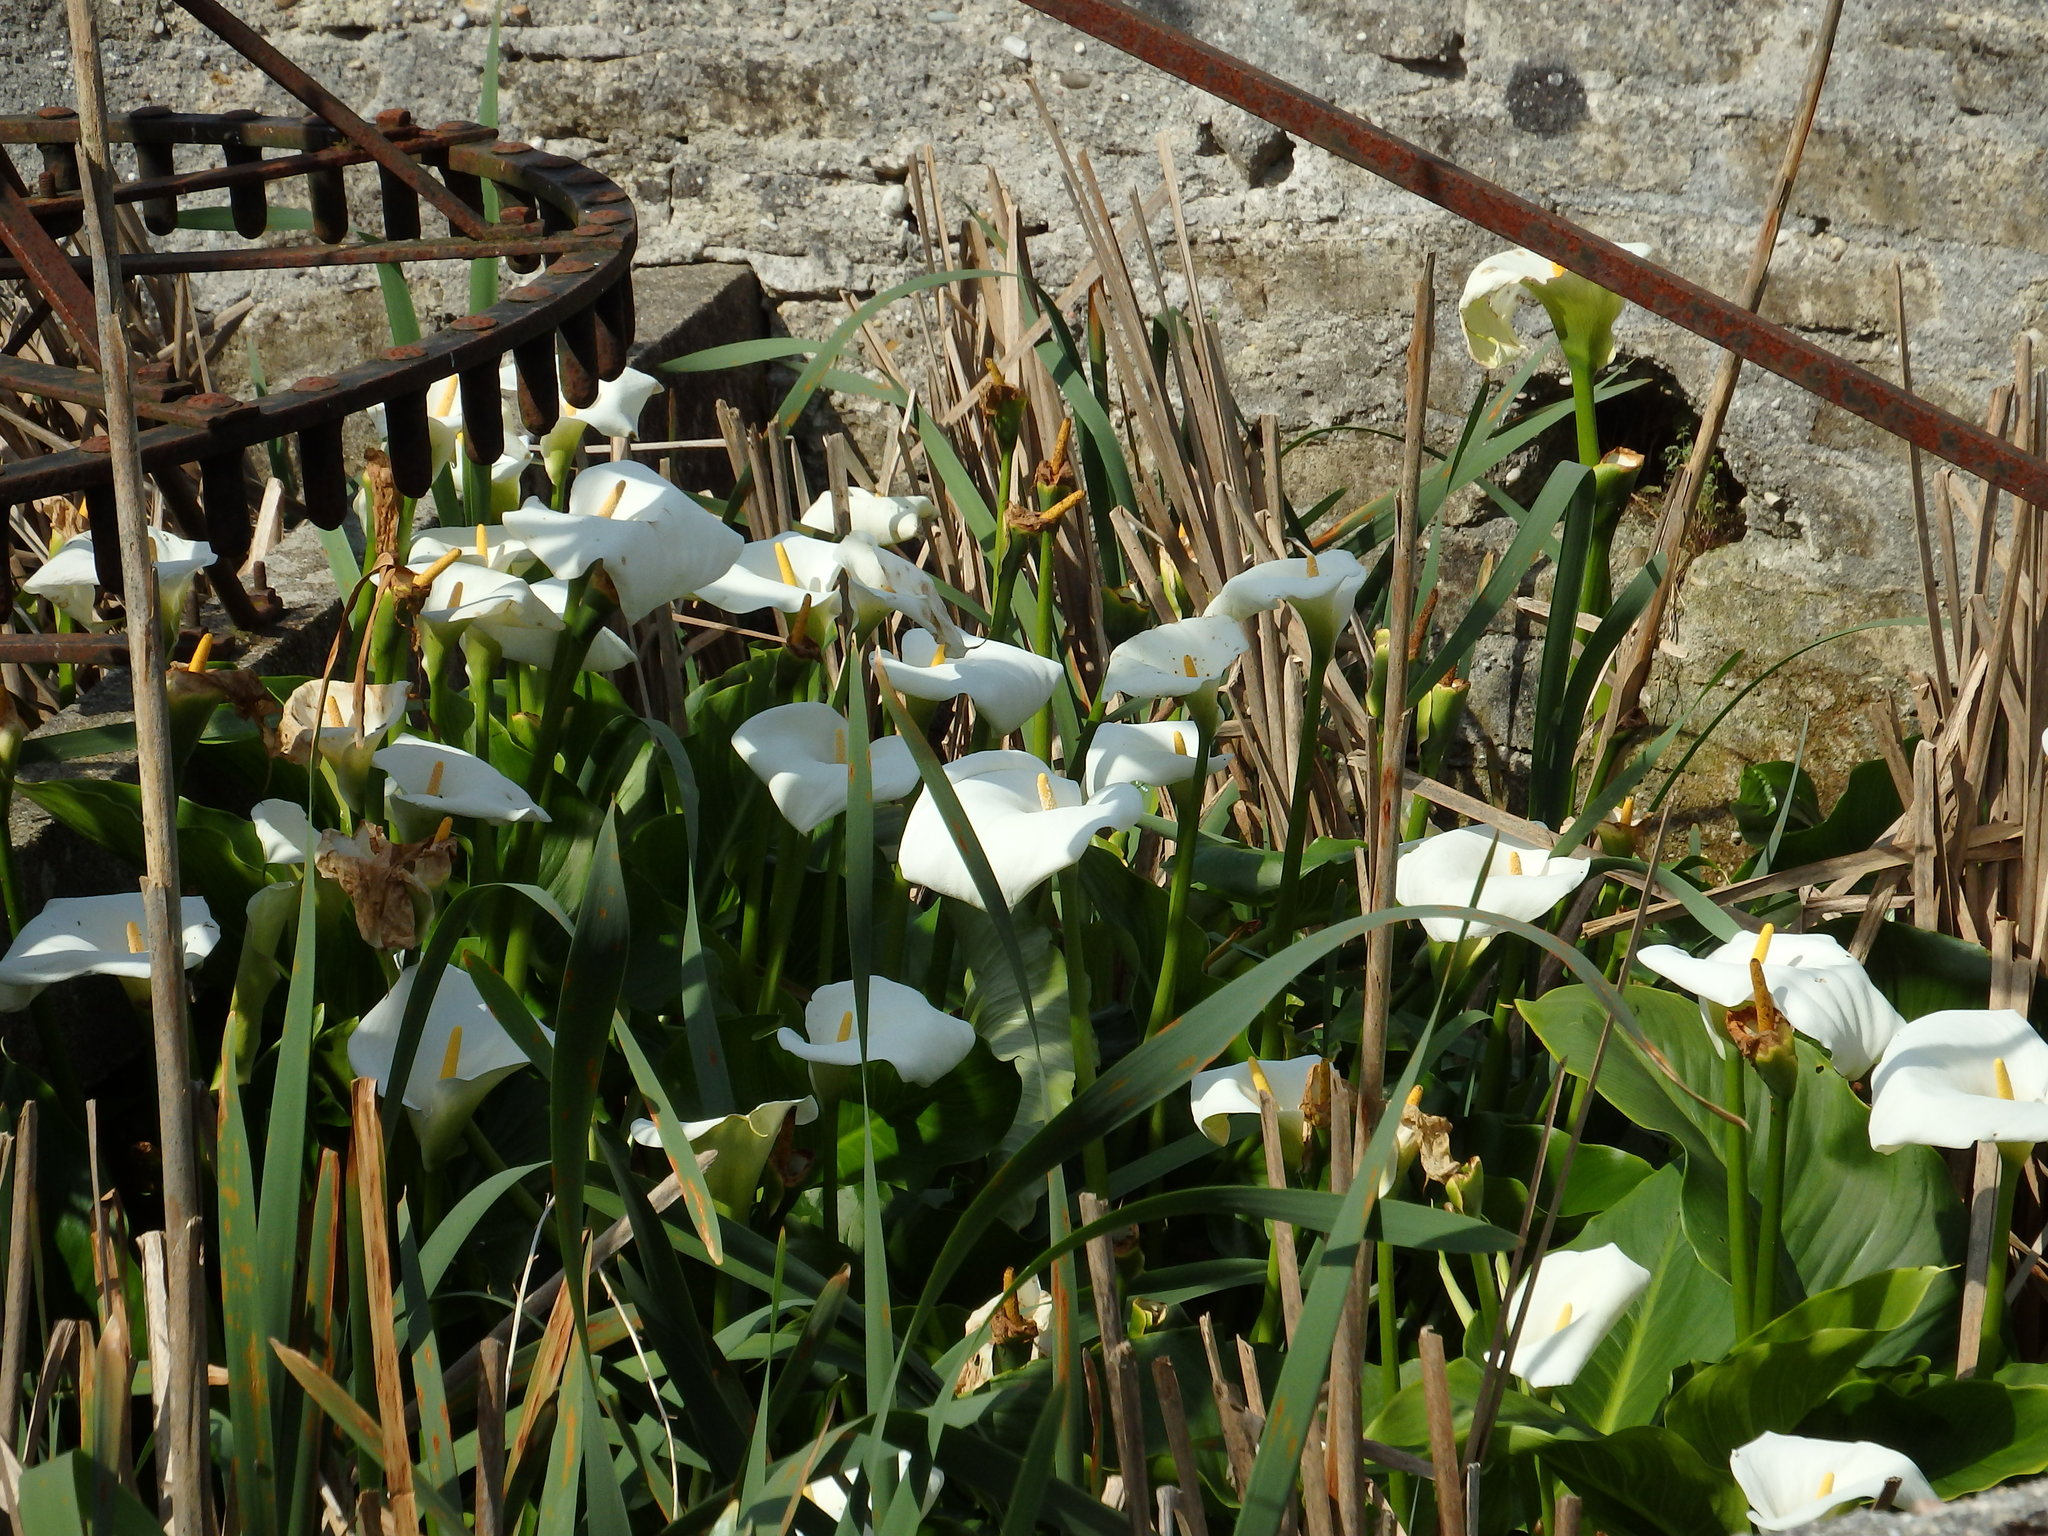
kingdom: Plantae
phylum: Tracheophyta
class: Liliopsida
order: Alismatales
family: Araceae
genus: Zantedeschia
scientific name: Zantedeschia aethiopica
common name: Altar-lily
